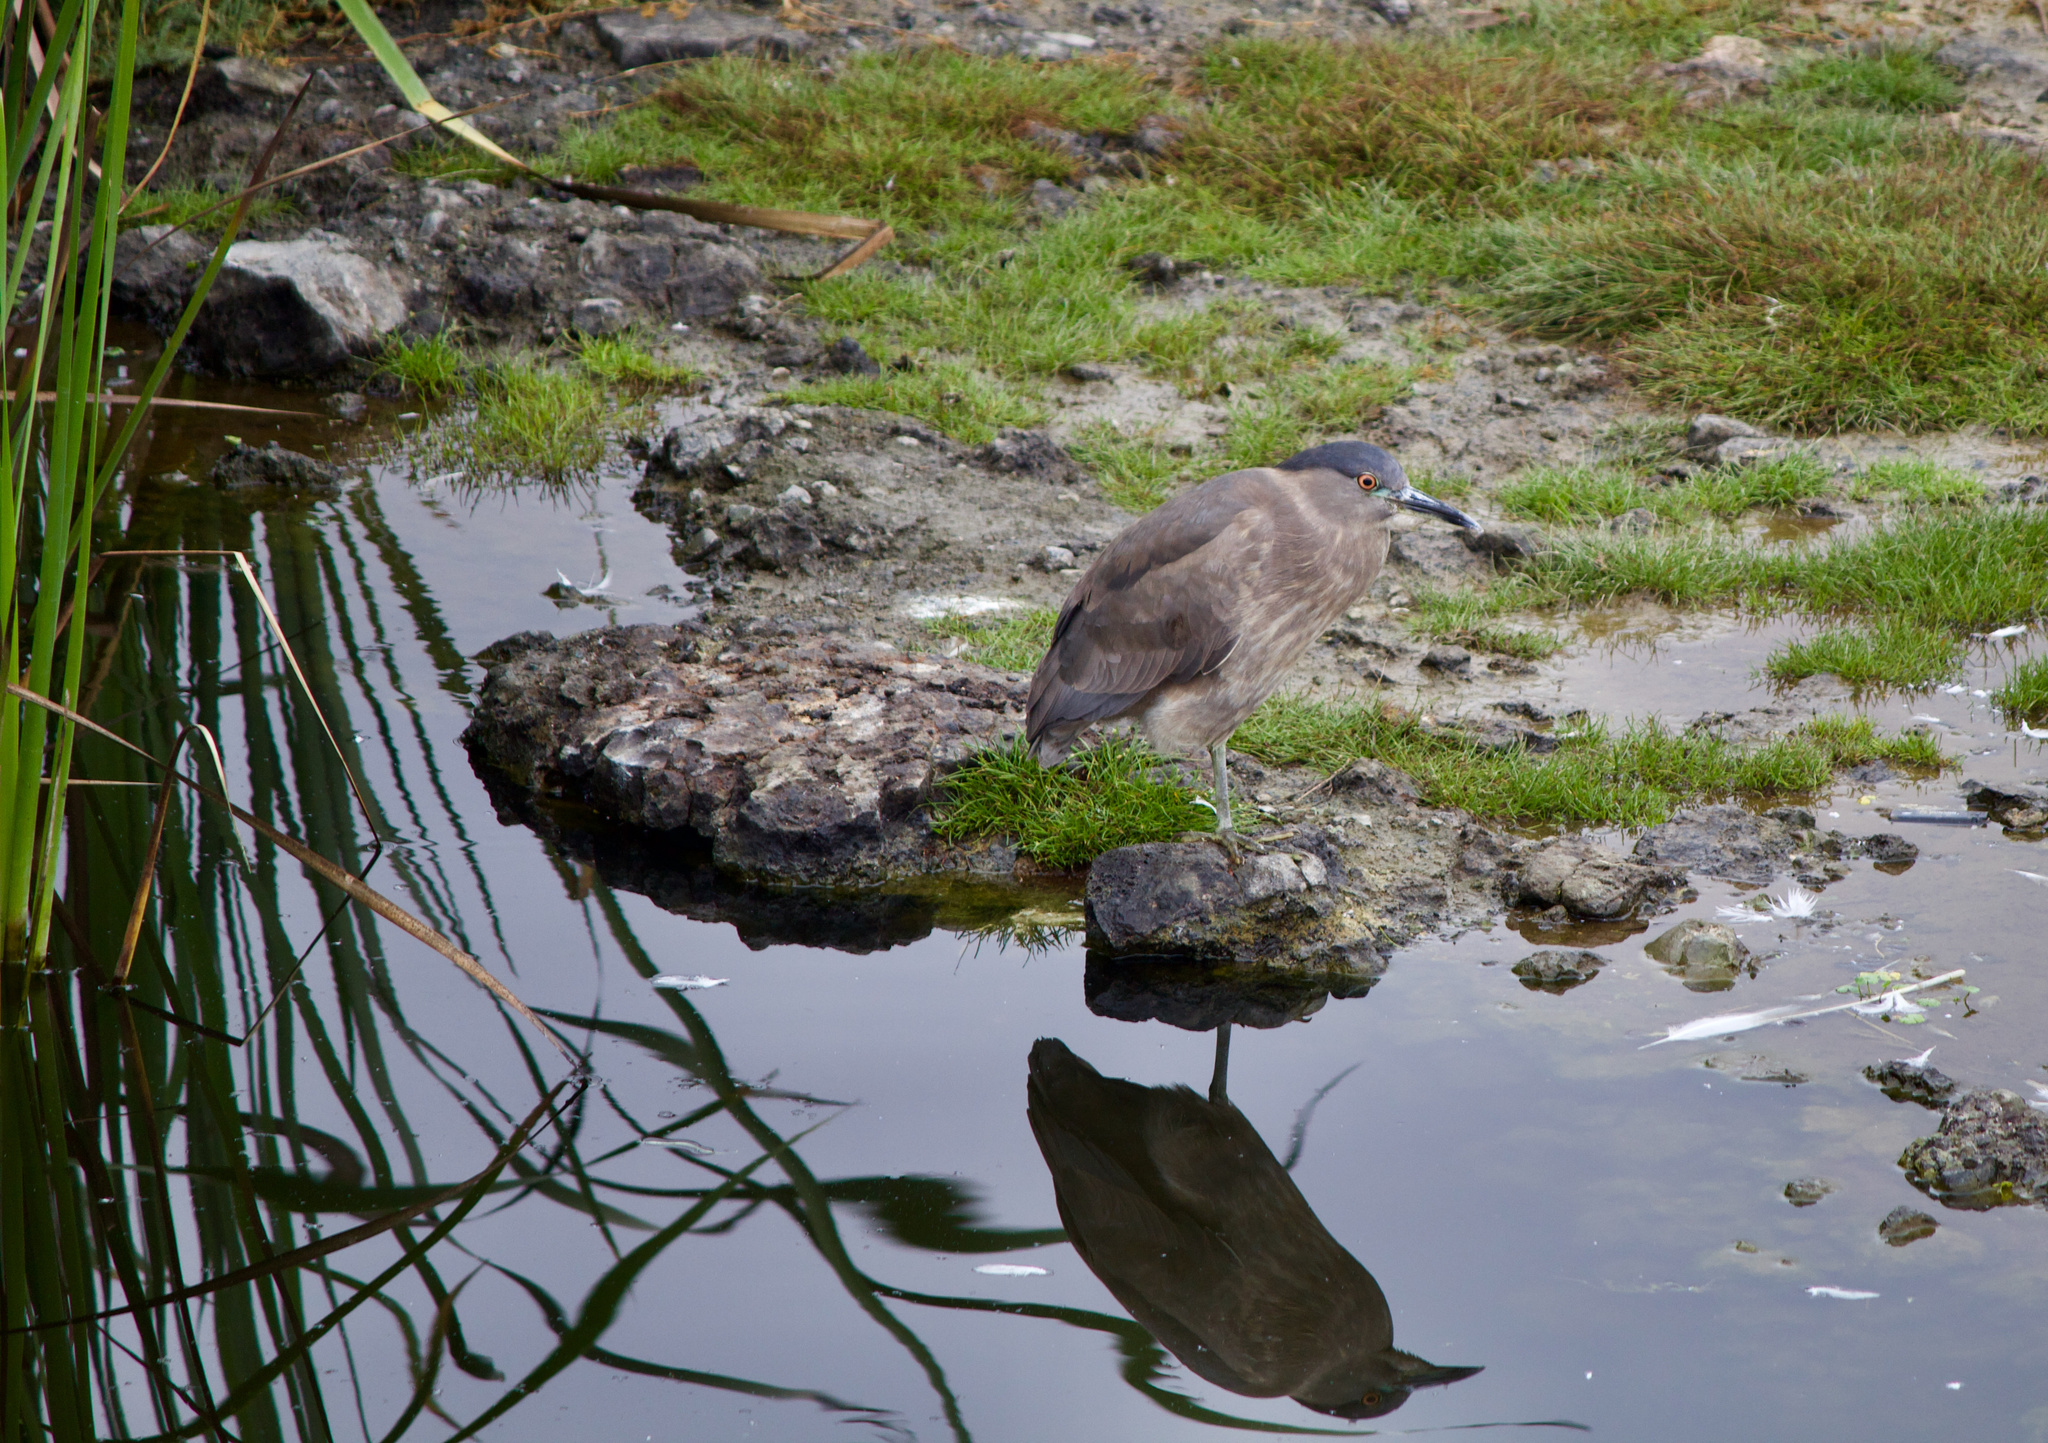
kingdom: Animalia
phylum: Chordata
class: Aves
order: Pelecaniformes
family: Ardeidae
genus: Nycticorax
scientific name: Nycticorax nycticorax
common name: Black-crowned night heron
